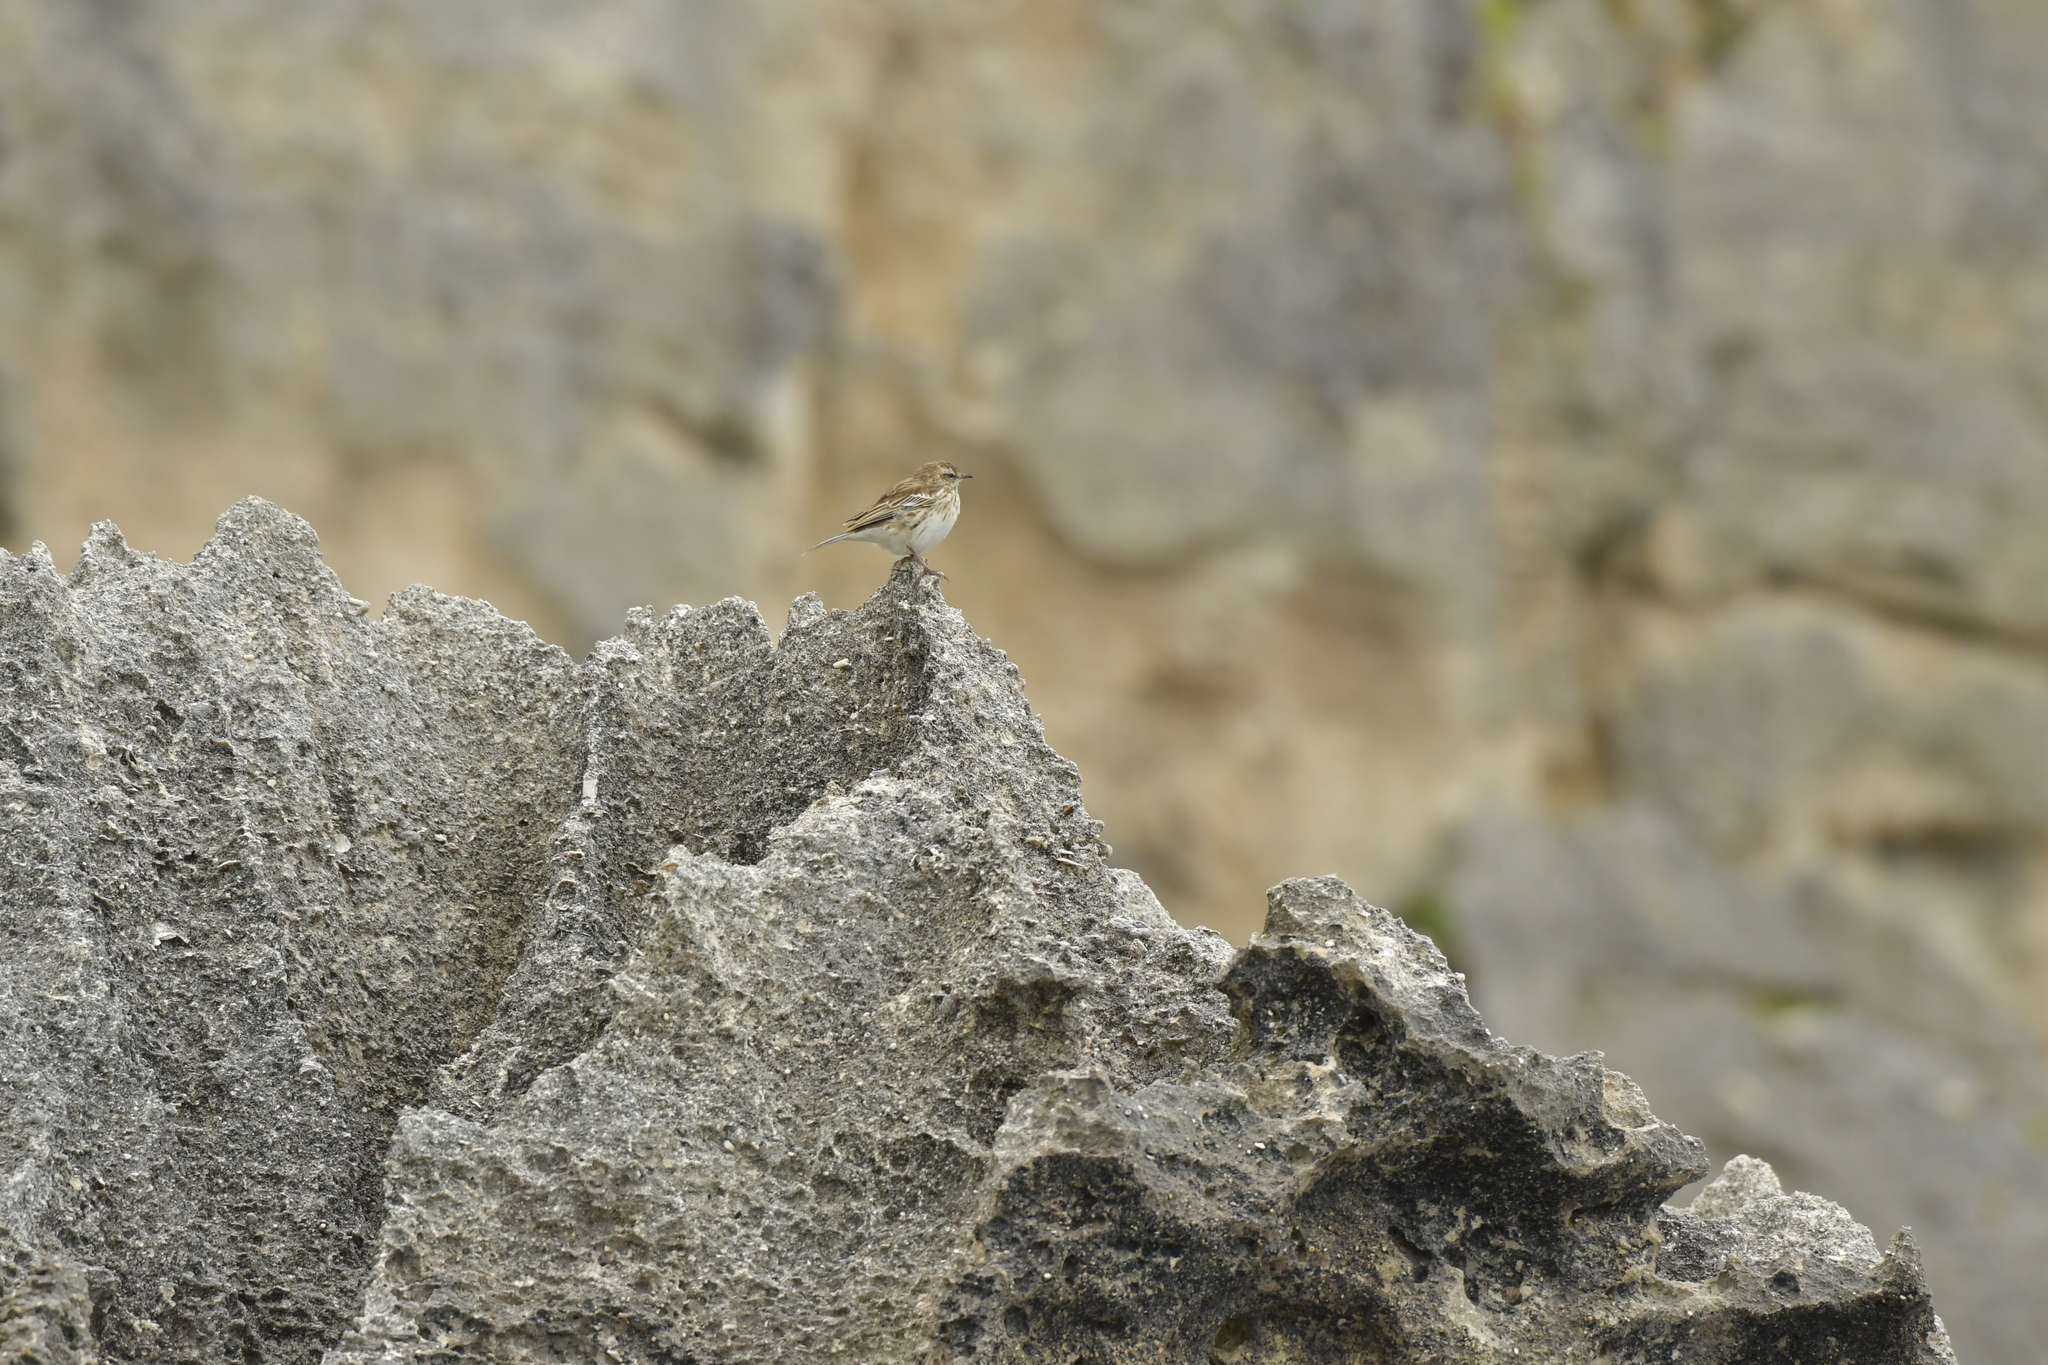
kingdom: Animalia
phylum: Chordata
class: Aves
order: Passeriformes
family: Motacillidae
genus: Anthus
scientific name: Anthus novaeseelandiae
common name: New zealand pipit
